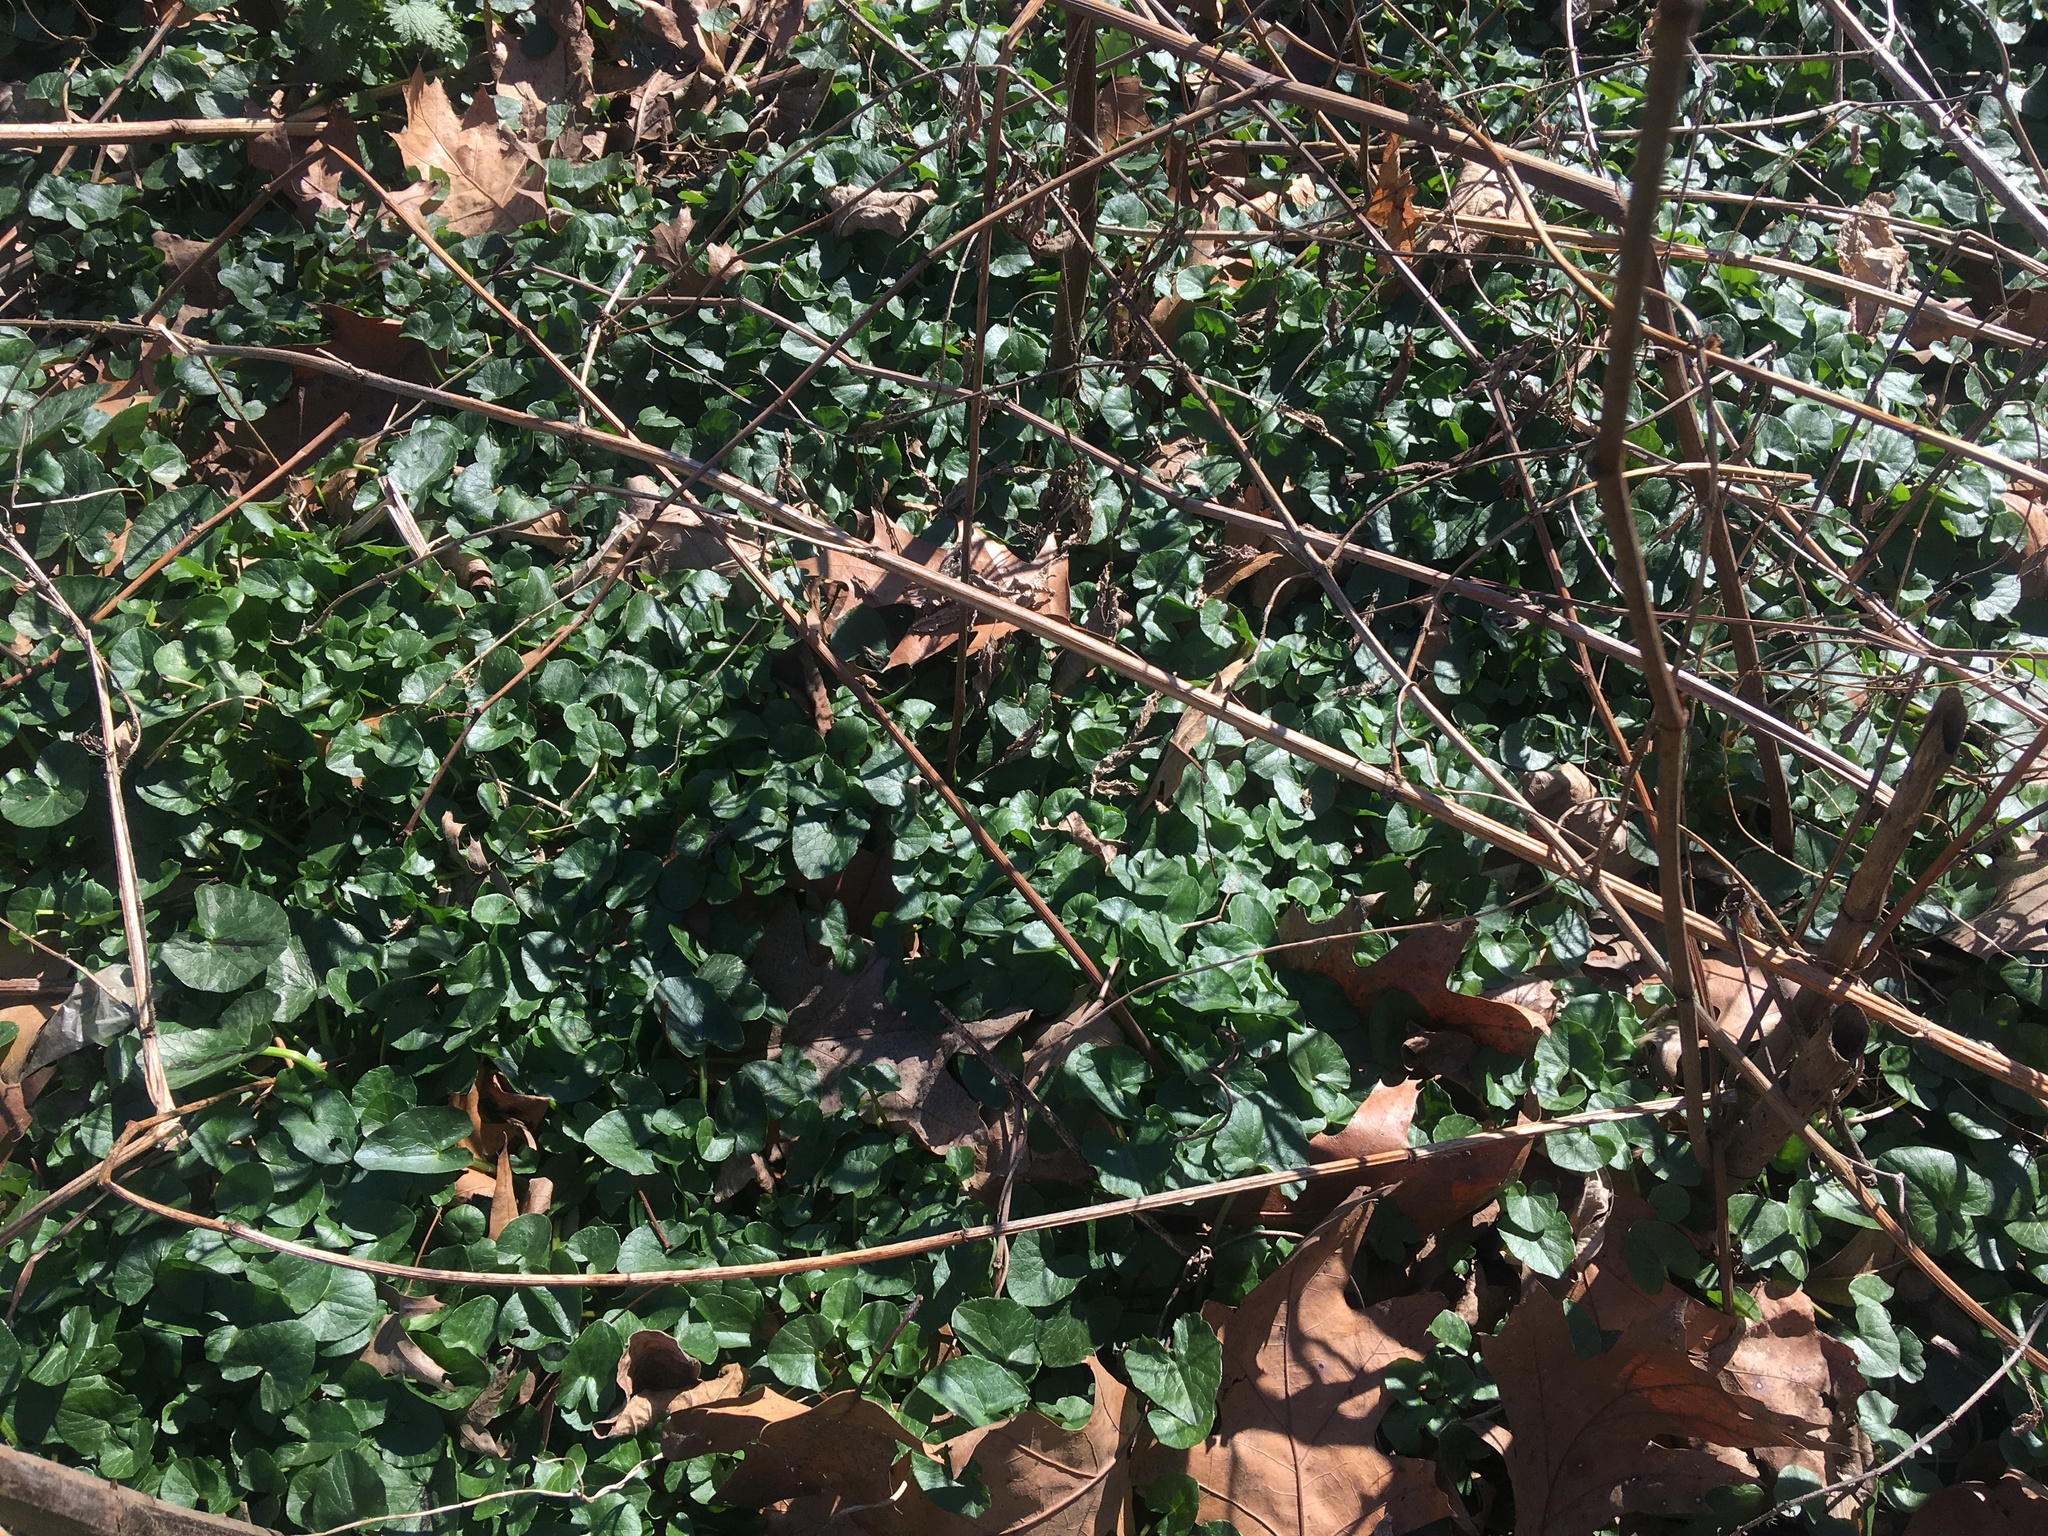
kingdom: Plantae
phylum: Tracheophyta
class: Magnoliopsida
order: Ranunculales
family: Ranunculaceae
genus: Ficaria
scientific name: Ficaria verna
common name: Lesser celandine
